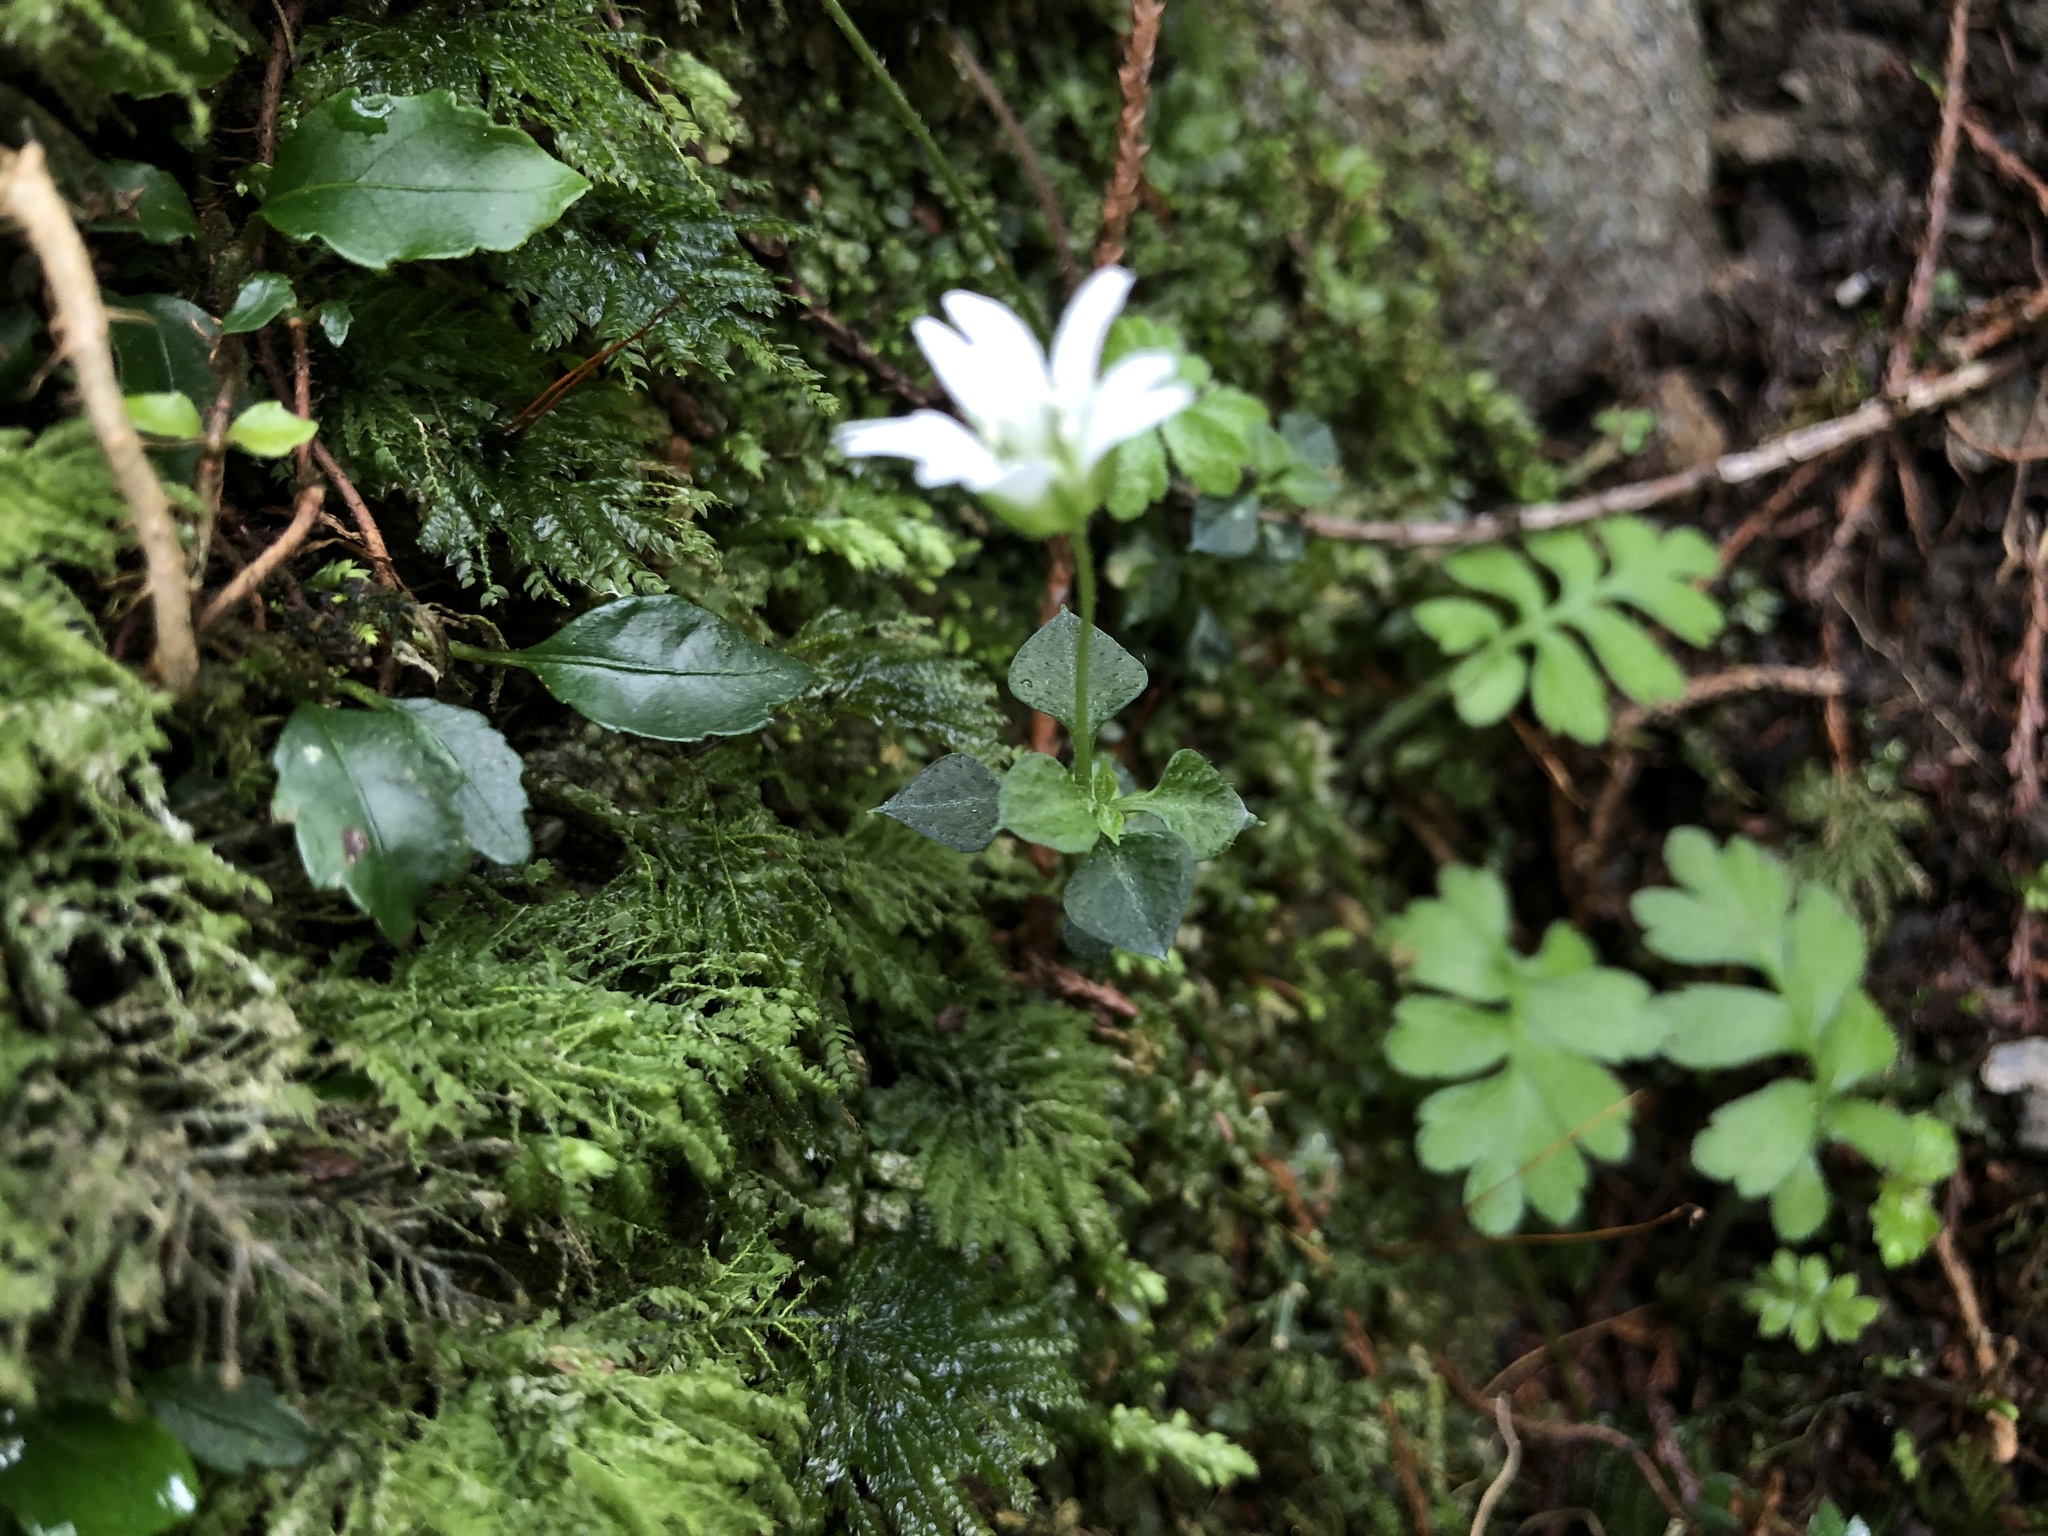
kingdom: Plantae
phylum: Tracheophyta
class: Magnoliopsida
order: Caryophyllales
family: Caryophyllaceae
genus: Nubelaria
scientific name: Nubelaria arisanensis
